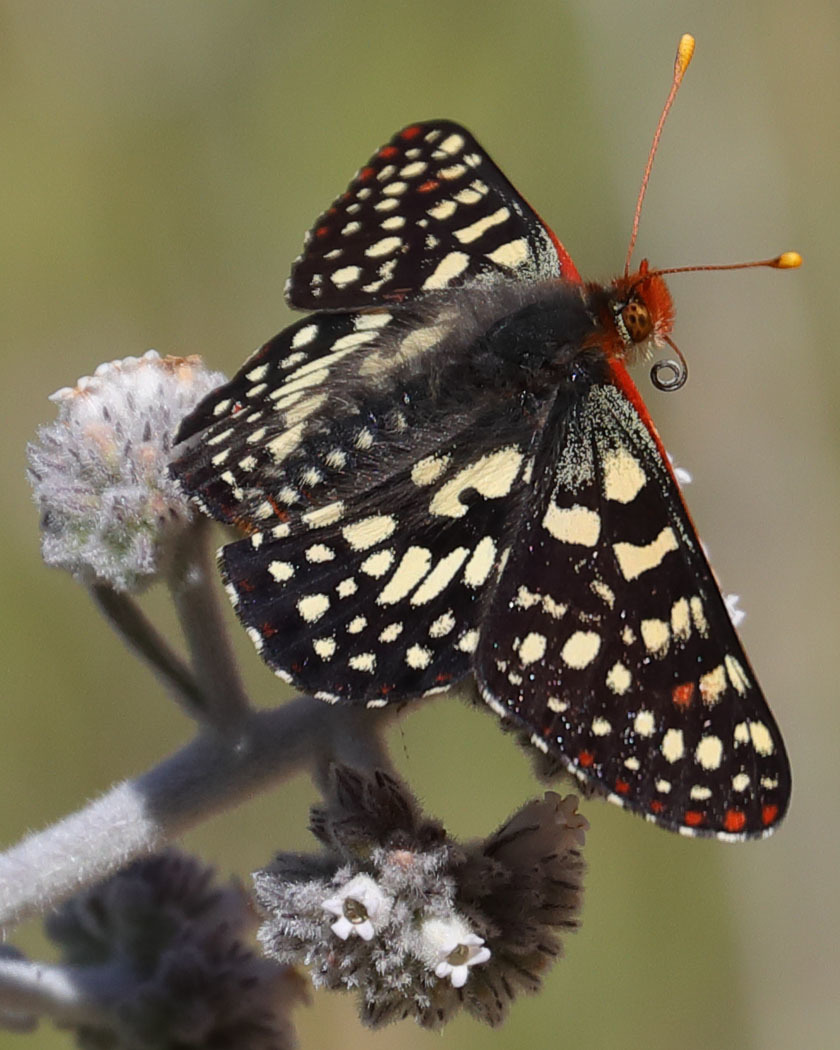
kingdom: Animalia
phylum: Arthropoda
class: Insecta
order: Lepidoptera
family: Nymphalidae
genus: Occidryas
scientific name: Occidryas chalcedona
